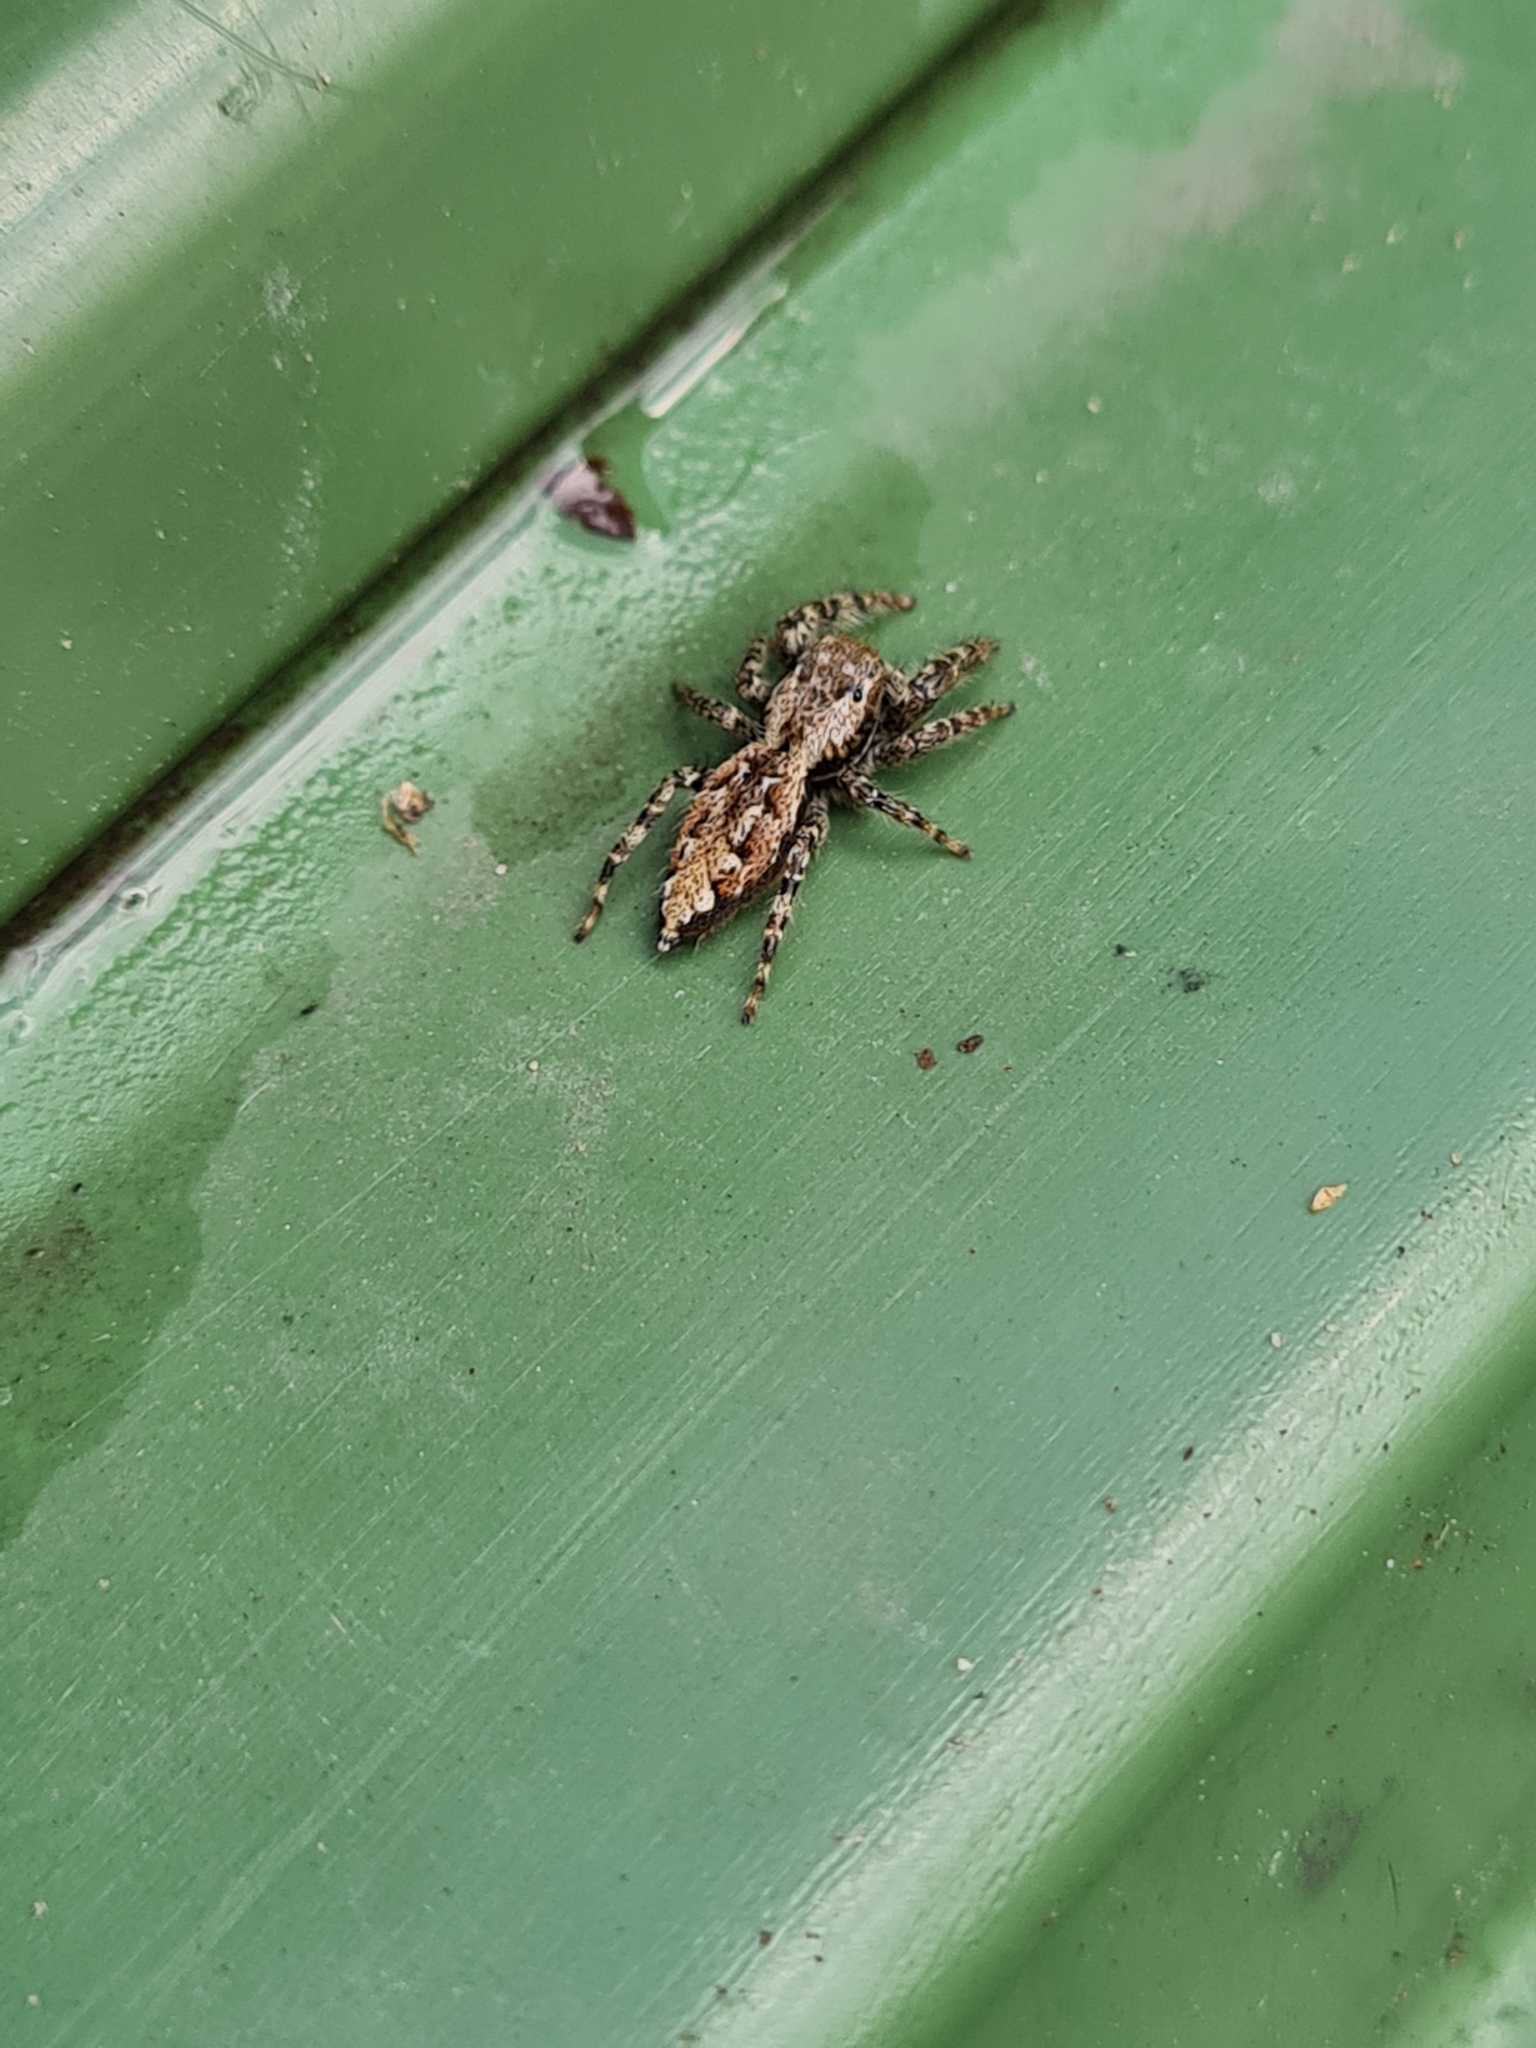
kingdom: Animalia
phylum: Arthropoda
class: Arachnida
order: Araneae
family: Salticidae
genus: Marpissa
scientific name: Marpissa muscosa
